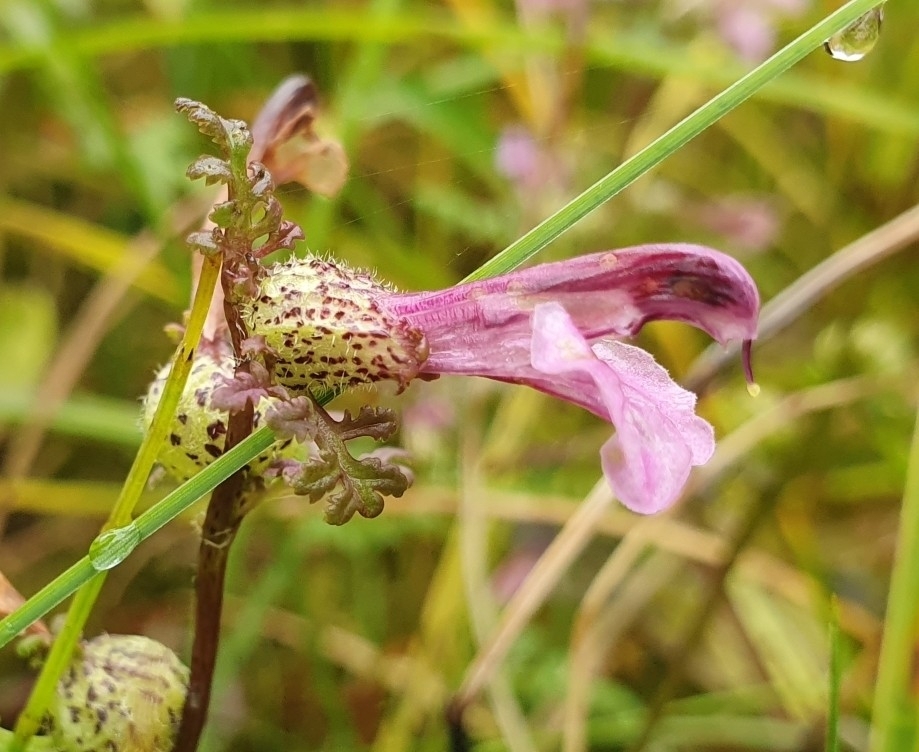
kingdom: Plantae
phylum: Tracheophyta
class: Magnoliopsida
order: Lamiales
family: Orobanchaceae
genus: Pedicularis
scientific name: Pedicularis palustris
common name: Marsh lousewort
